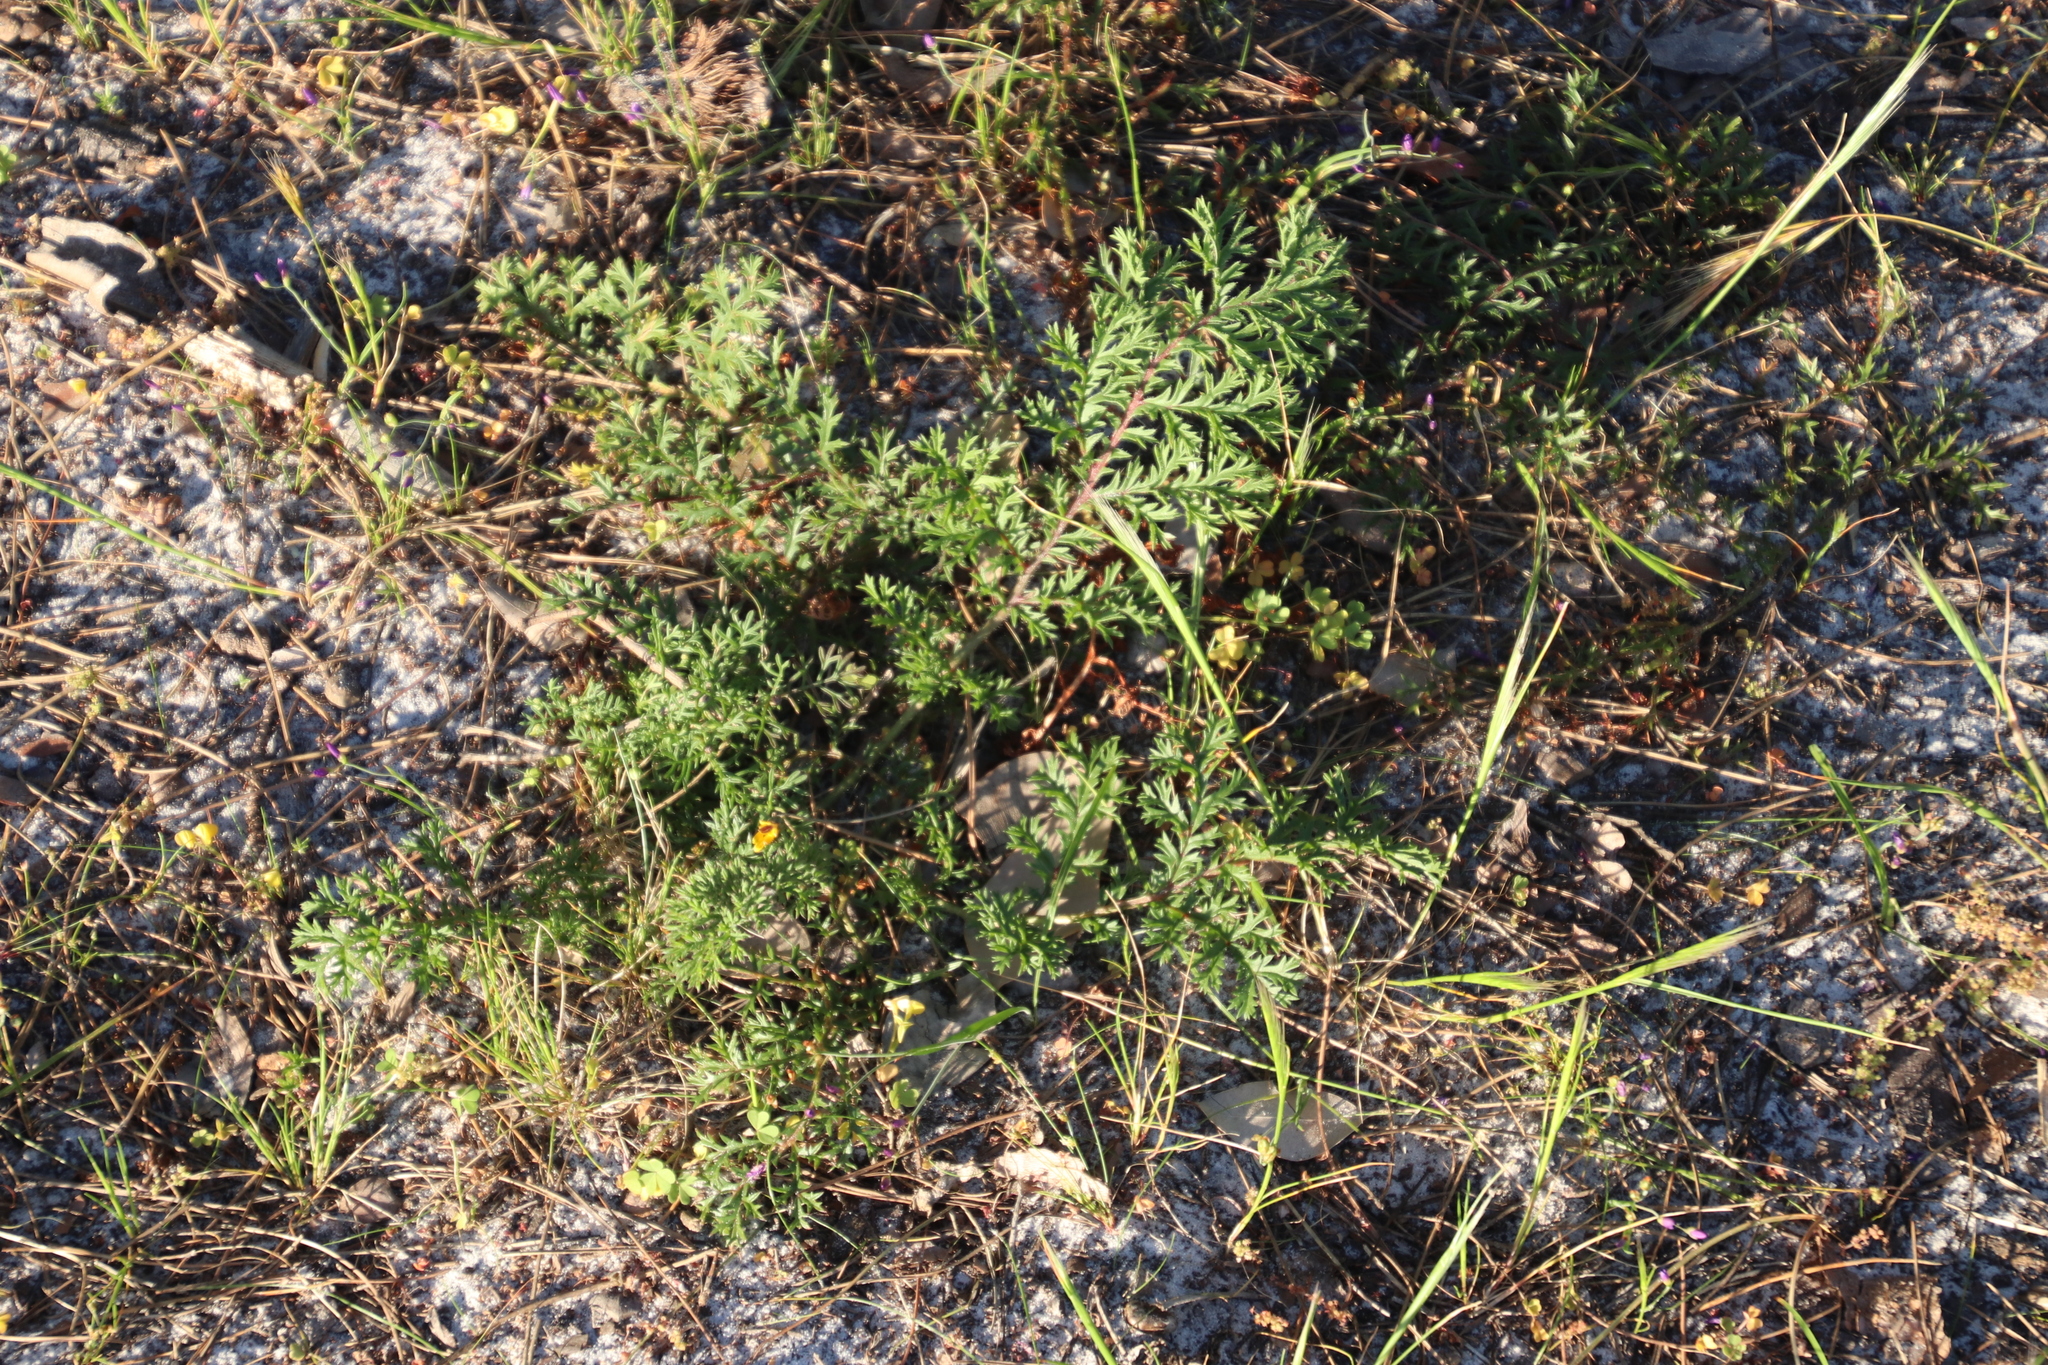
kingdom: Plantae
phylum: Tracheophyta
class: Magnoliopsida
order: Geraniales
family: Geraniaceae
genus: Pelargonium
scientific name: Pelargonium triste
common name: Night-scent pelargonium
